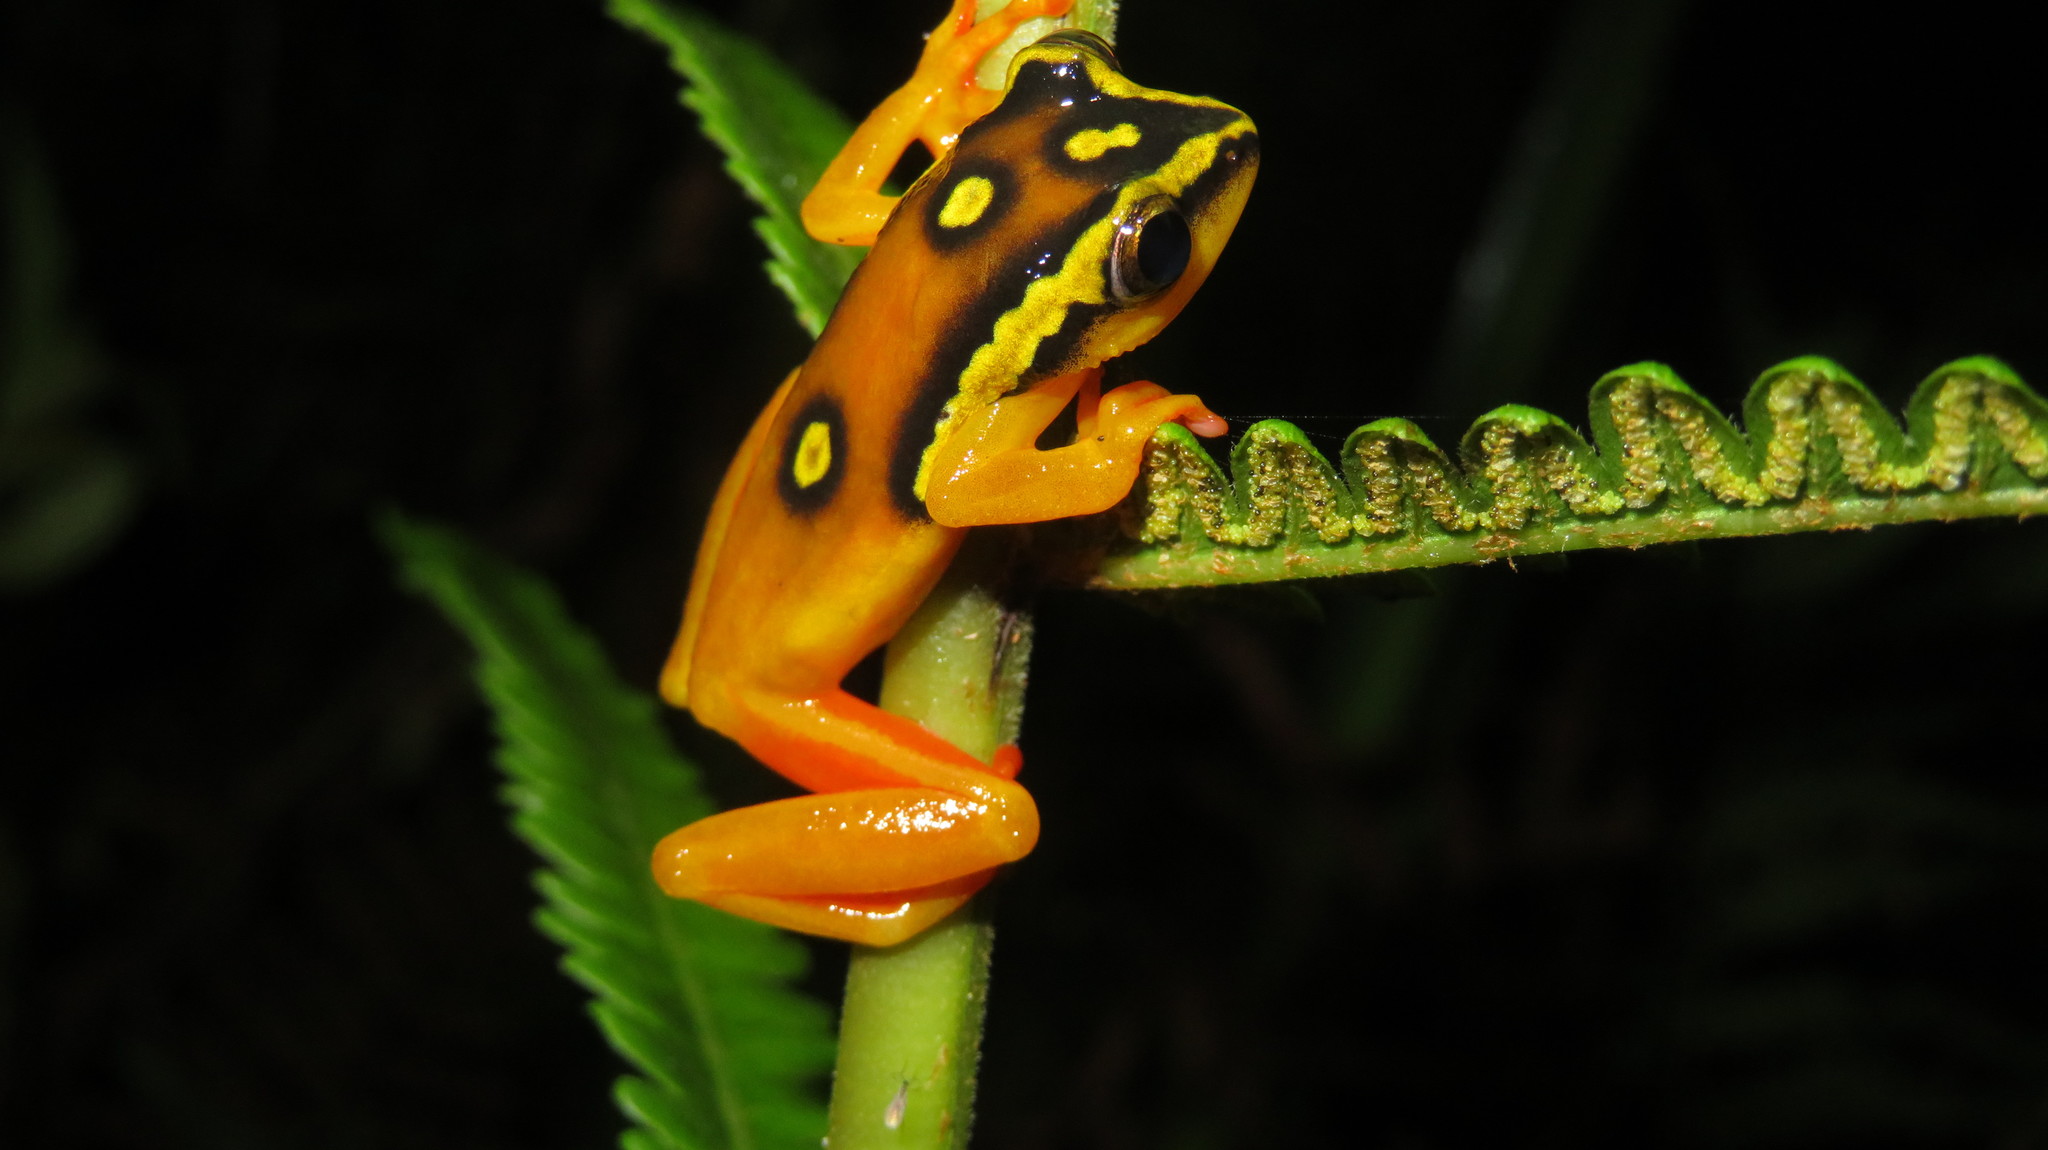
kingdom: Animalia
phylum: Chordata
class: Amphibia
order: Anura
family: Hyperoliidae
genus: Hyperolius
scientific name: Hyperolius substriatus
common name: Spotted reed frog
